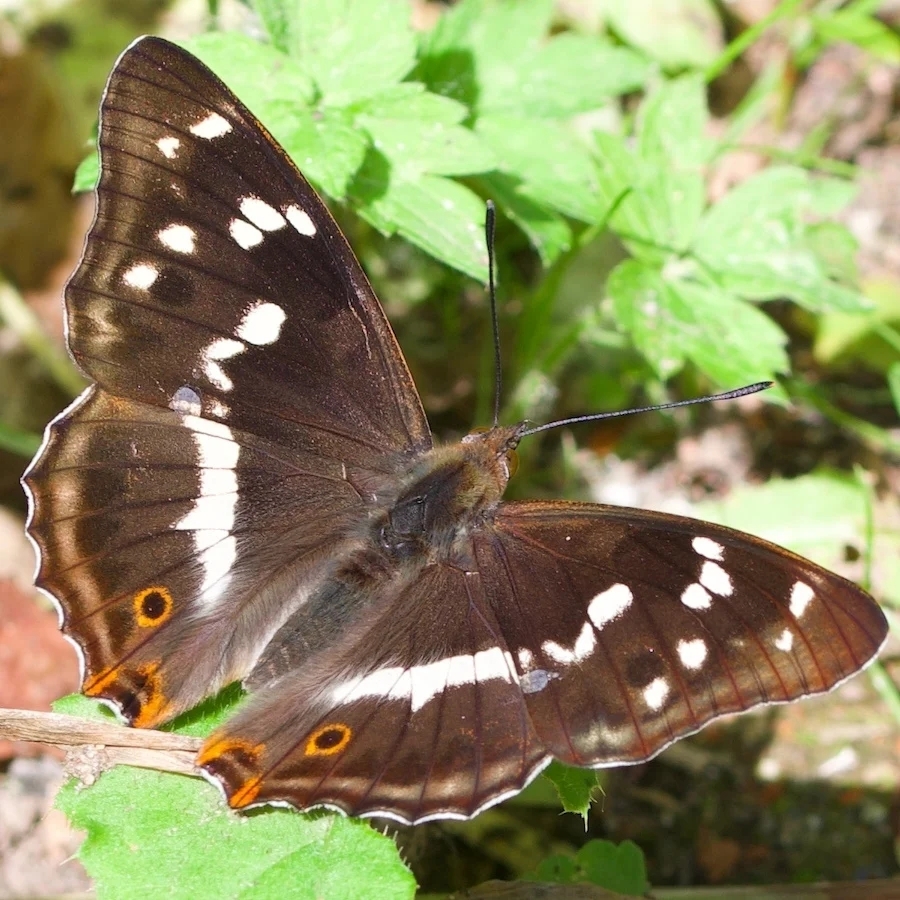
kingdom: Animalia
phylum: Arthropoda
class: Insecta
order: Lepidoptera
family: Nymphalidae
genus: Apatura
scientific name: Apatura iris
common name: Purple emperor
